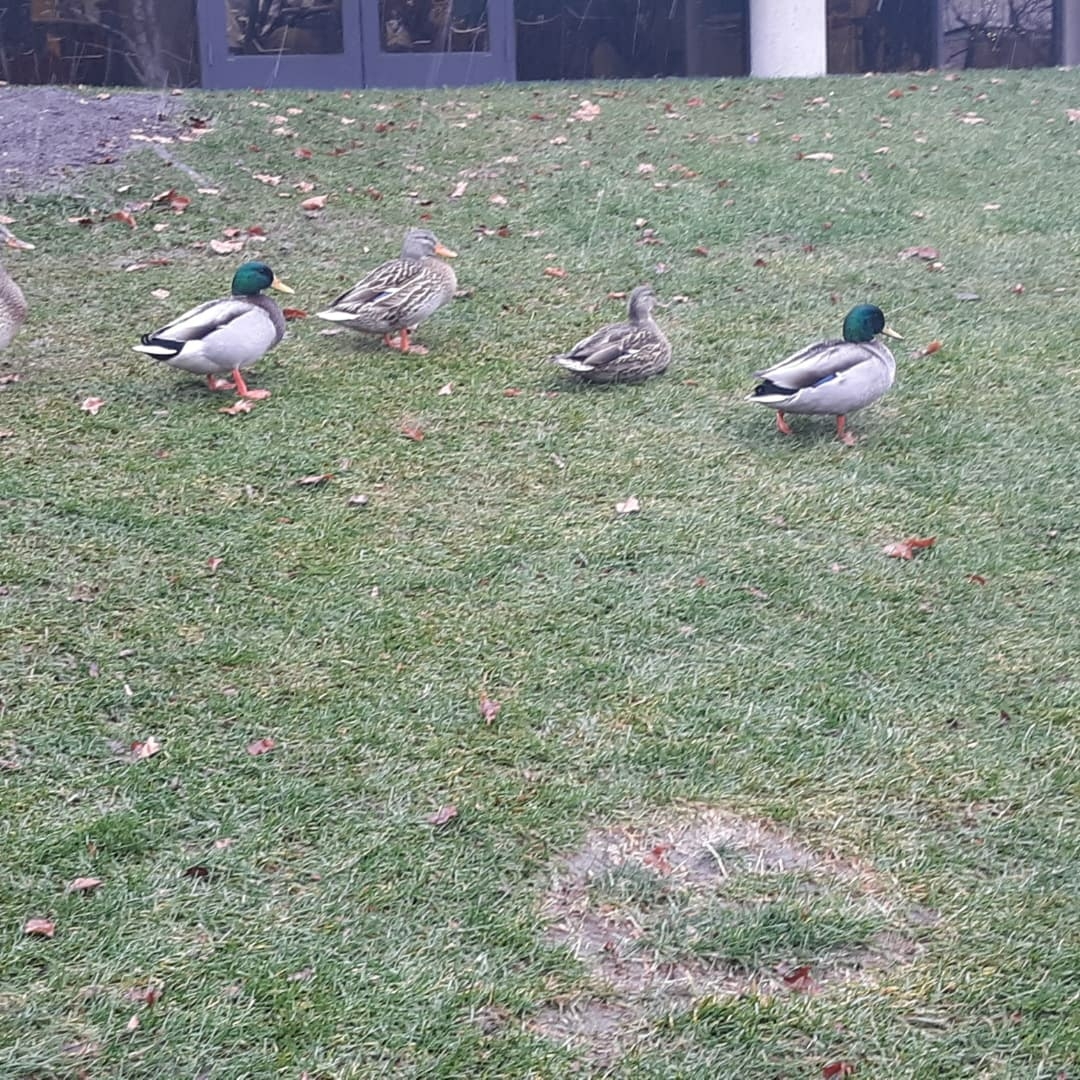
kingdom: Animalia
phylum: Chordata
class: Aves
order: Anseriformes
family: Anatidae
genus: Anas
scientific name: Anas platyrhynchos
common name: Mallard
